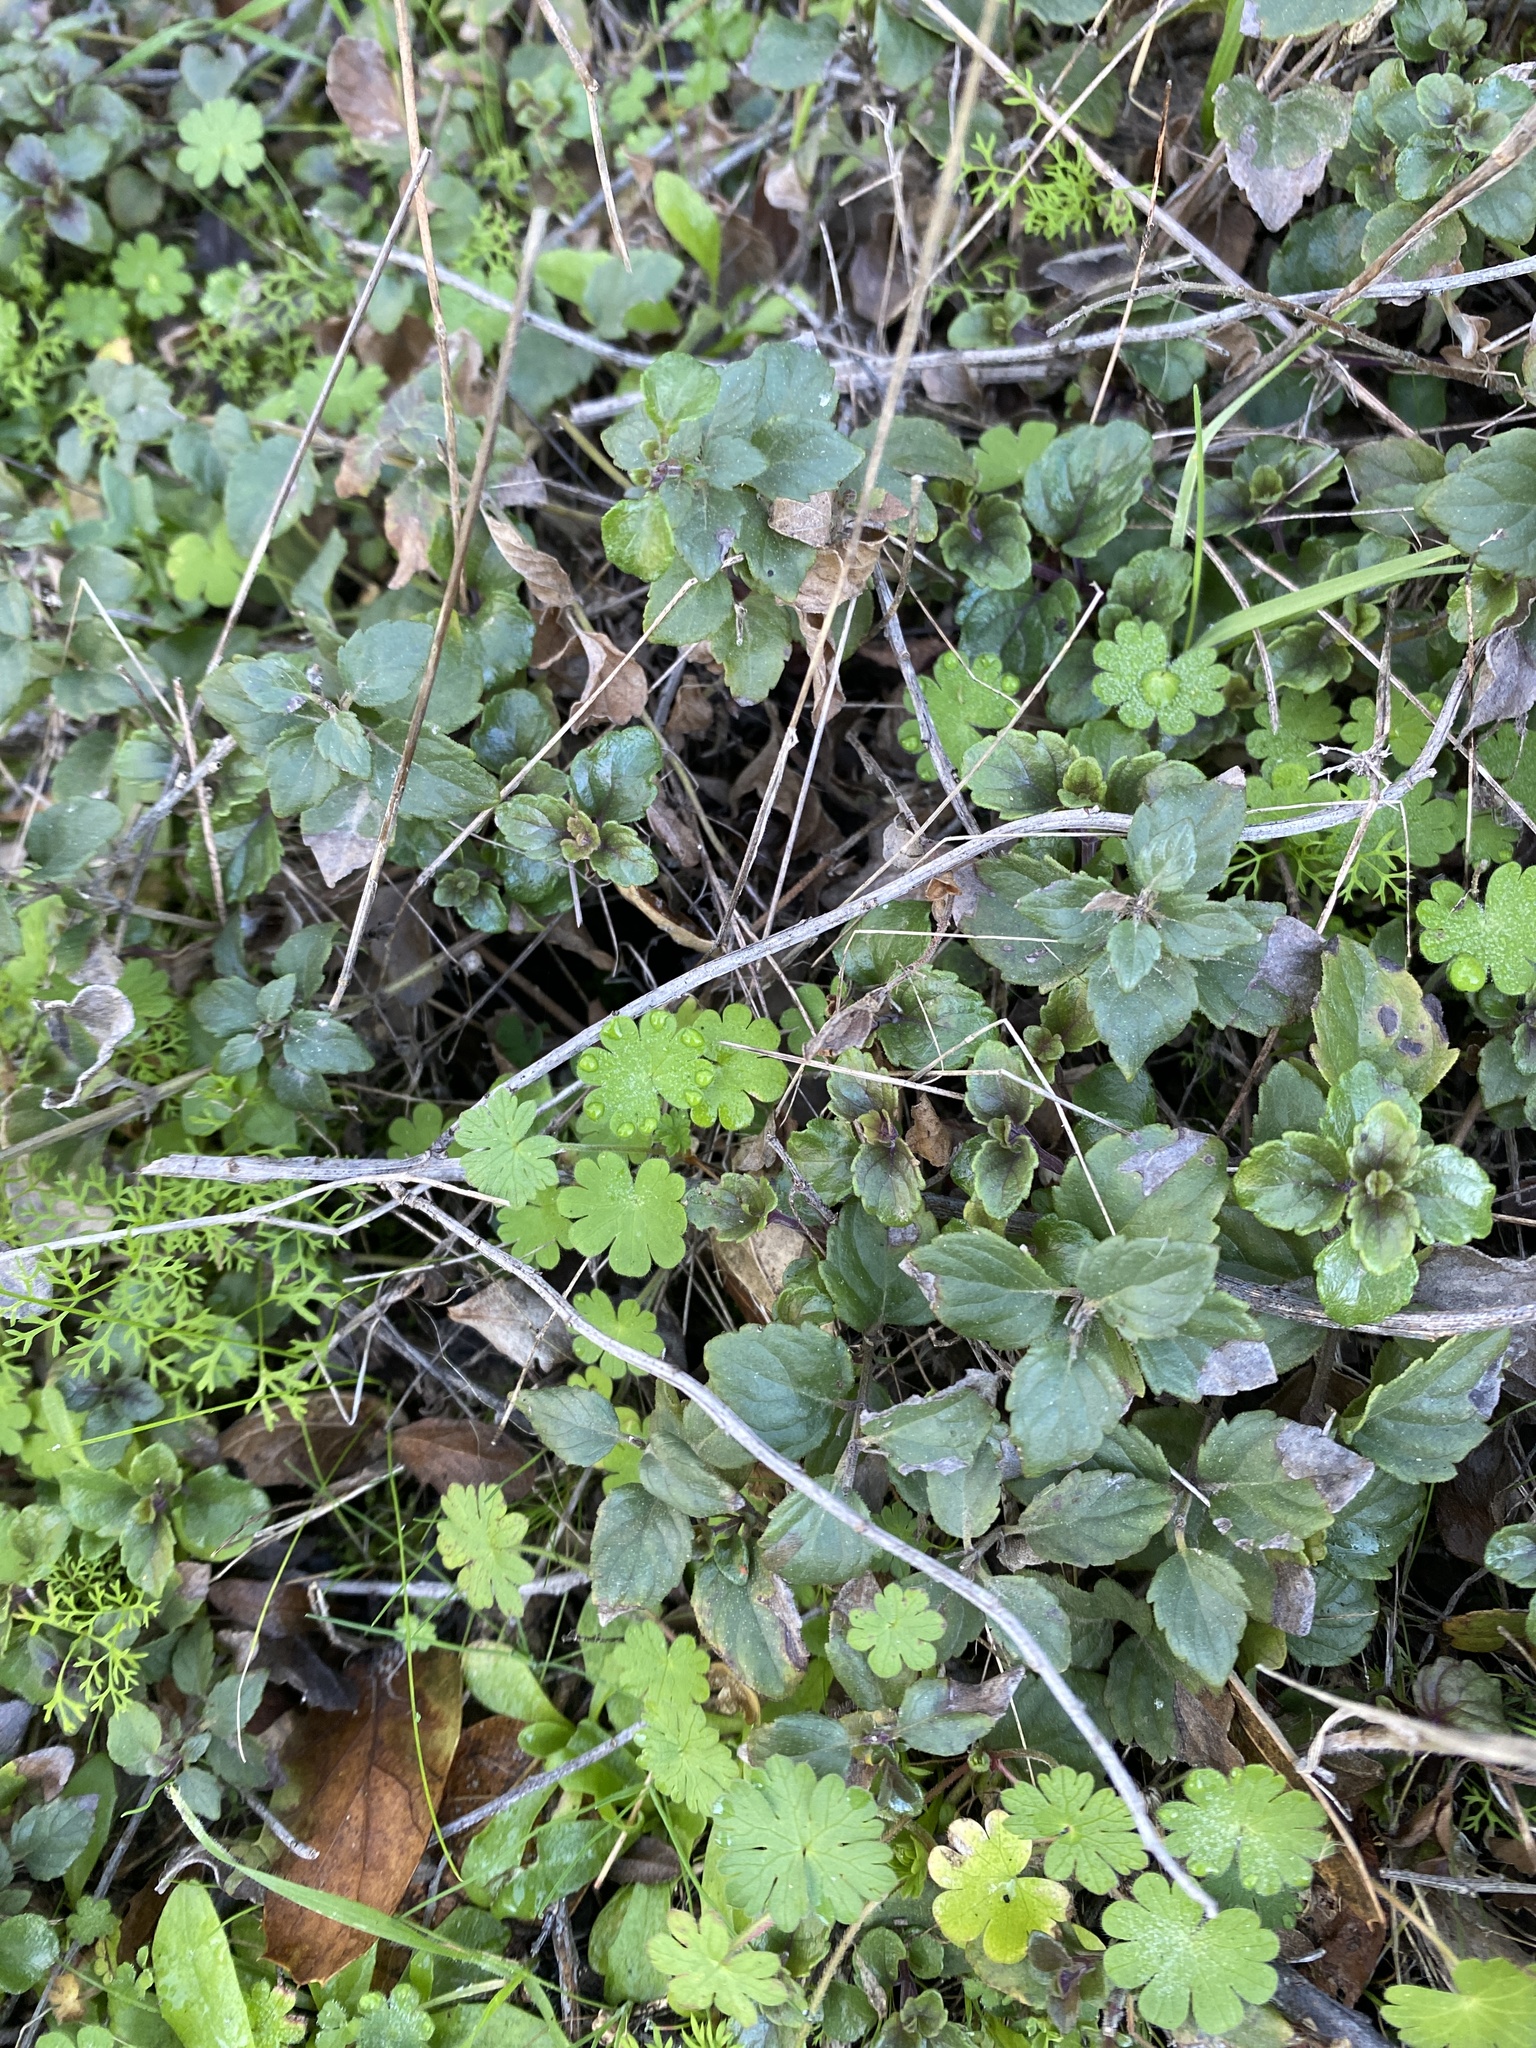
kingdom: Plantae
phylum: Tracheophyta
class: Magnoliopsida
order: Lamiales
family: Lamiaceae
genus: Micromeria
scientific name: Micromeria douglasii
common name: Yerba buena
